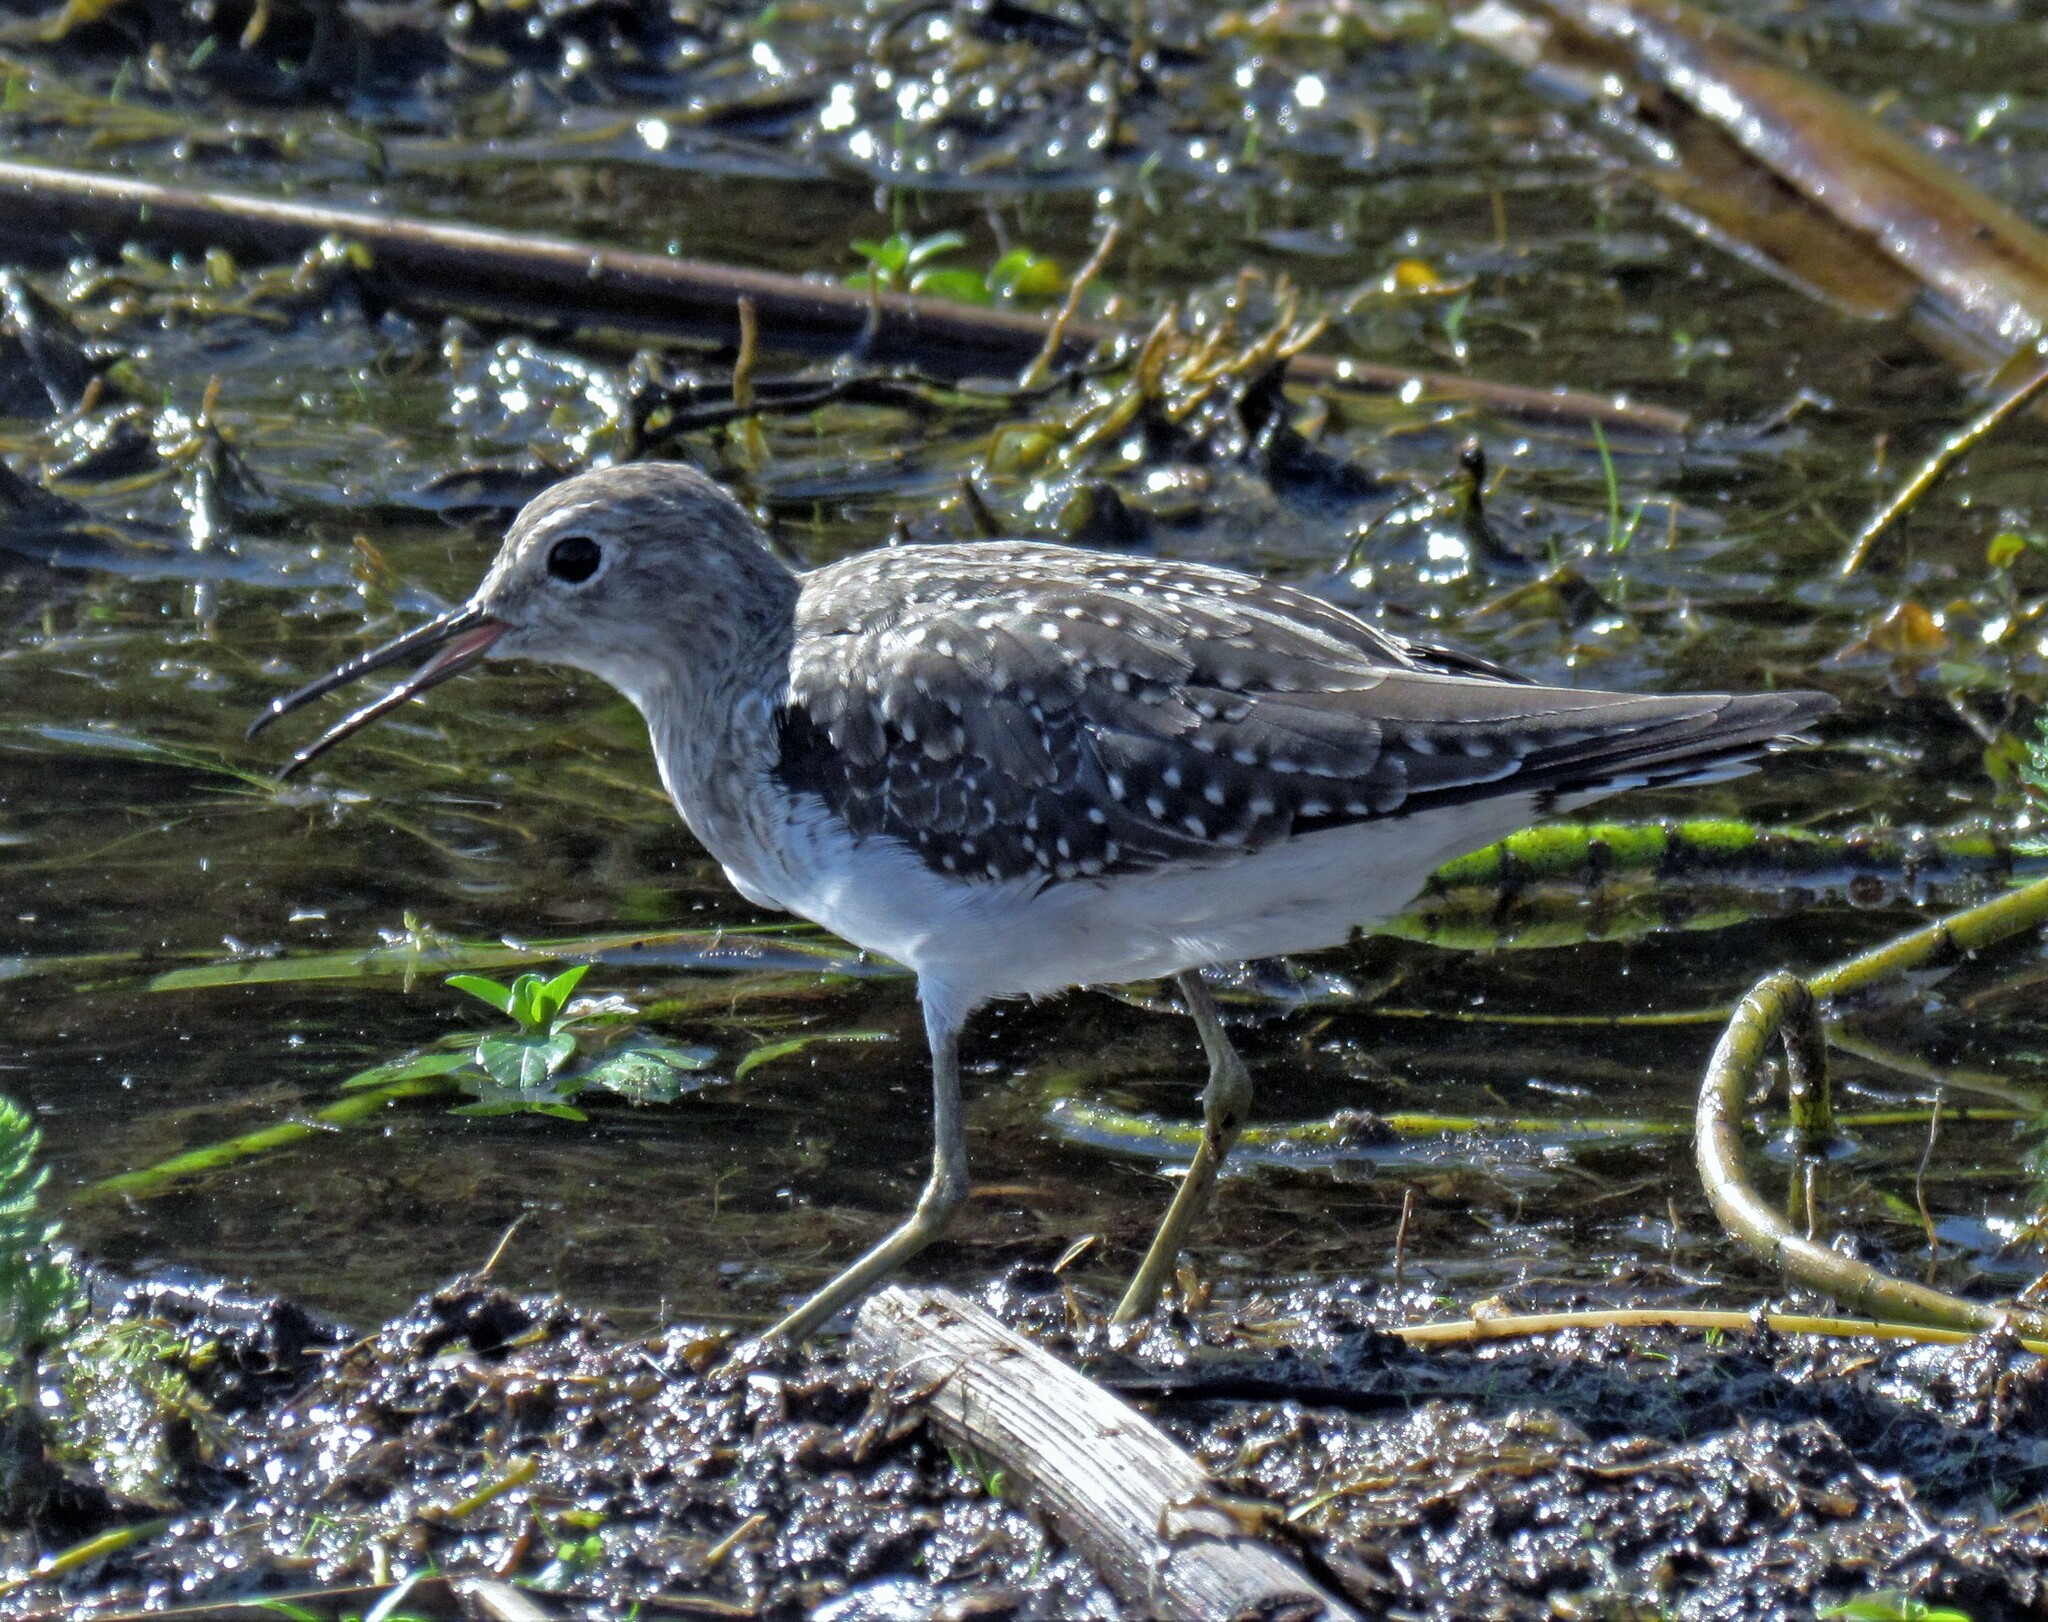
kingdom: Animalia
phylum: Chordata
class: Aves
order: Charadriiformes
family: Scolopacidae
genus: Tringa
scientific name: Tringa solitaria
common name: Solitary sandpiper
